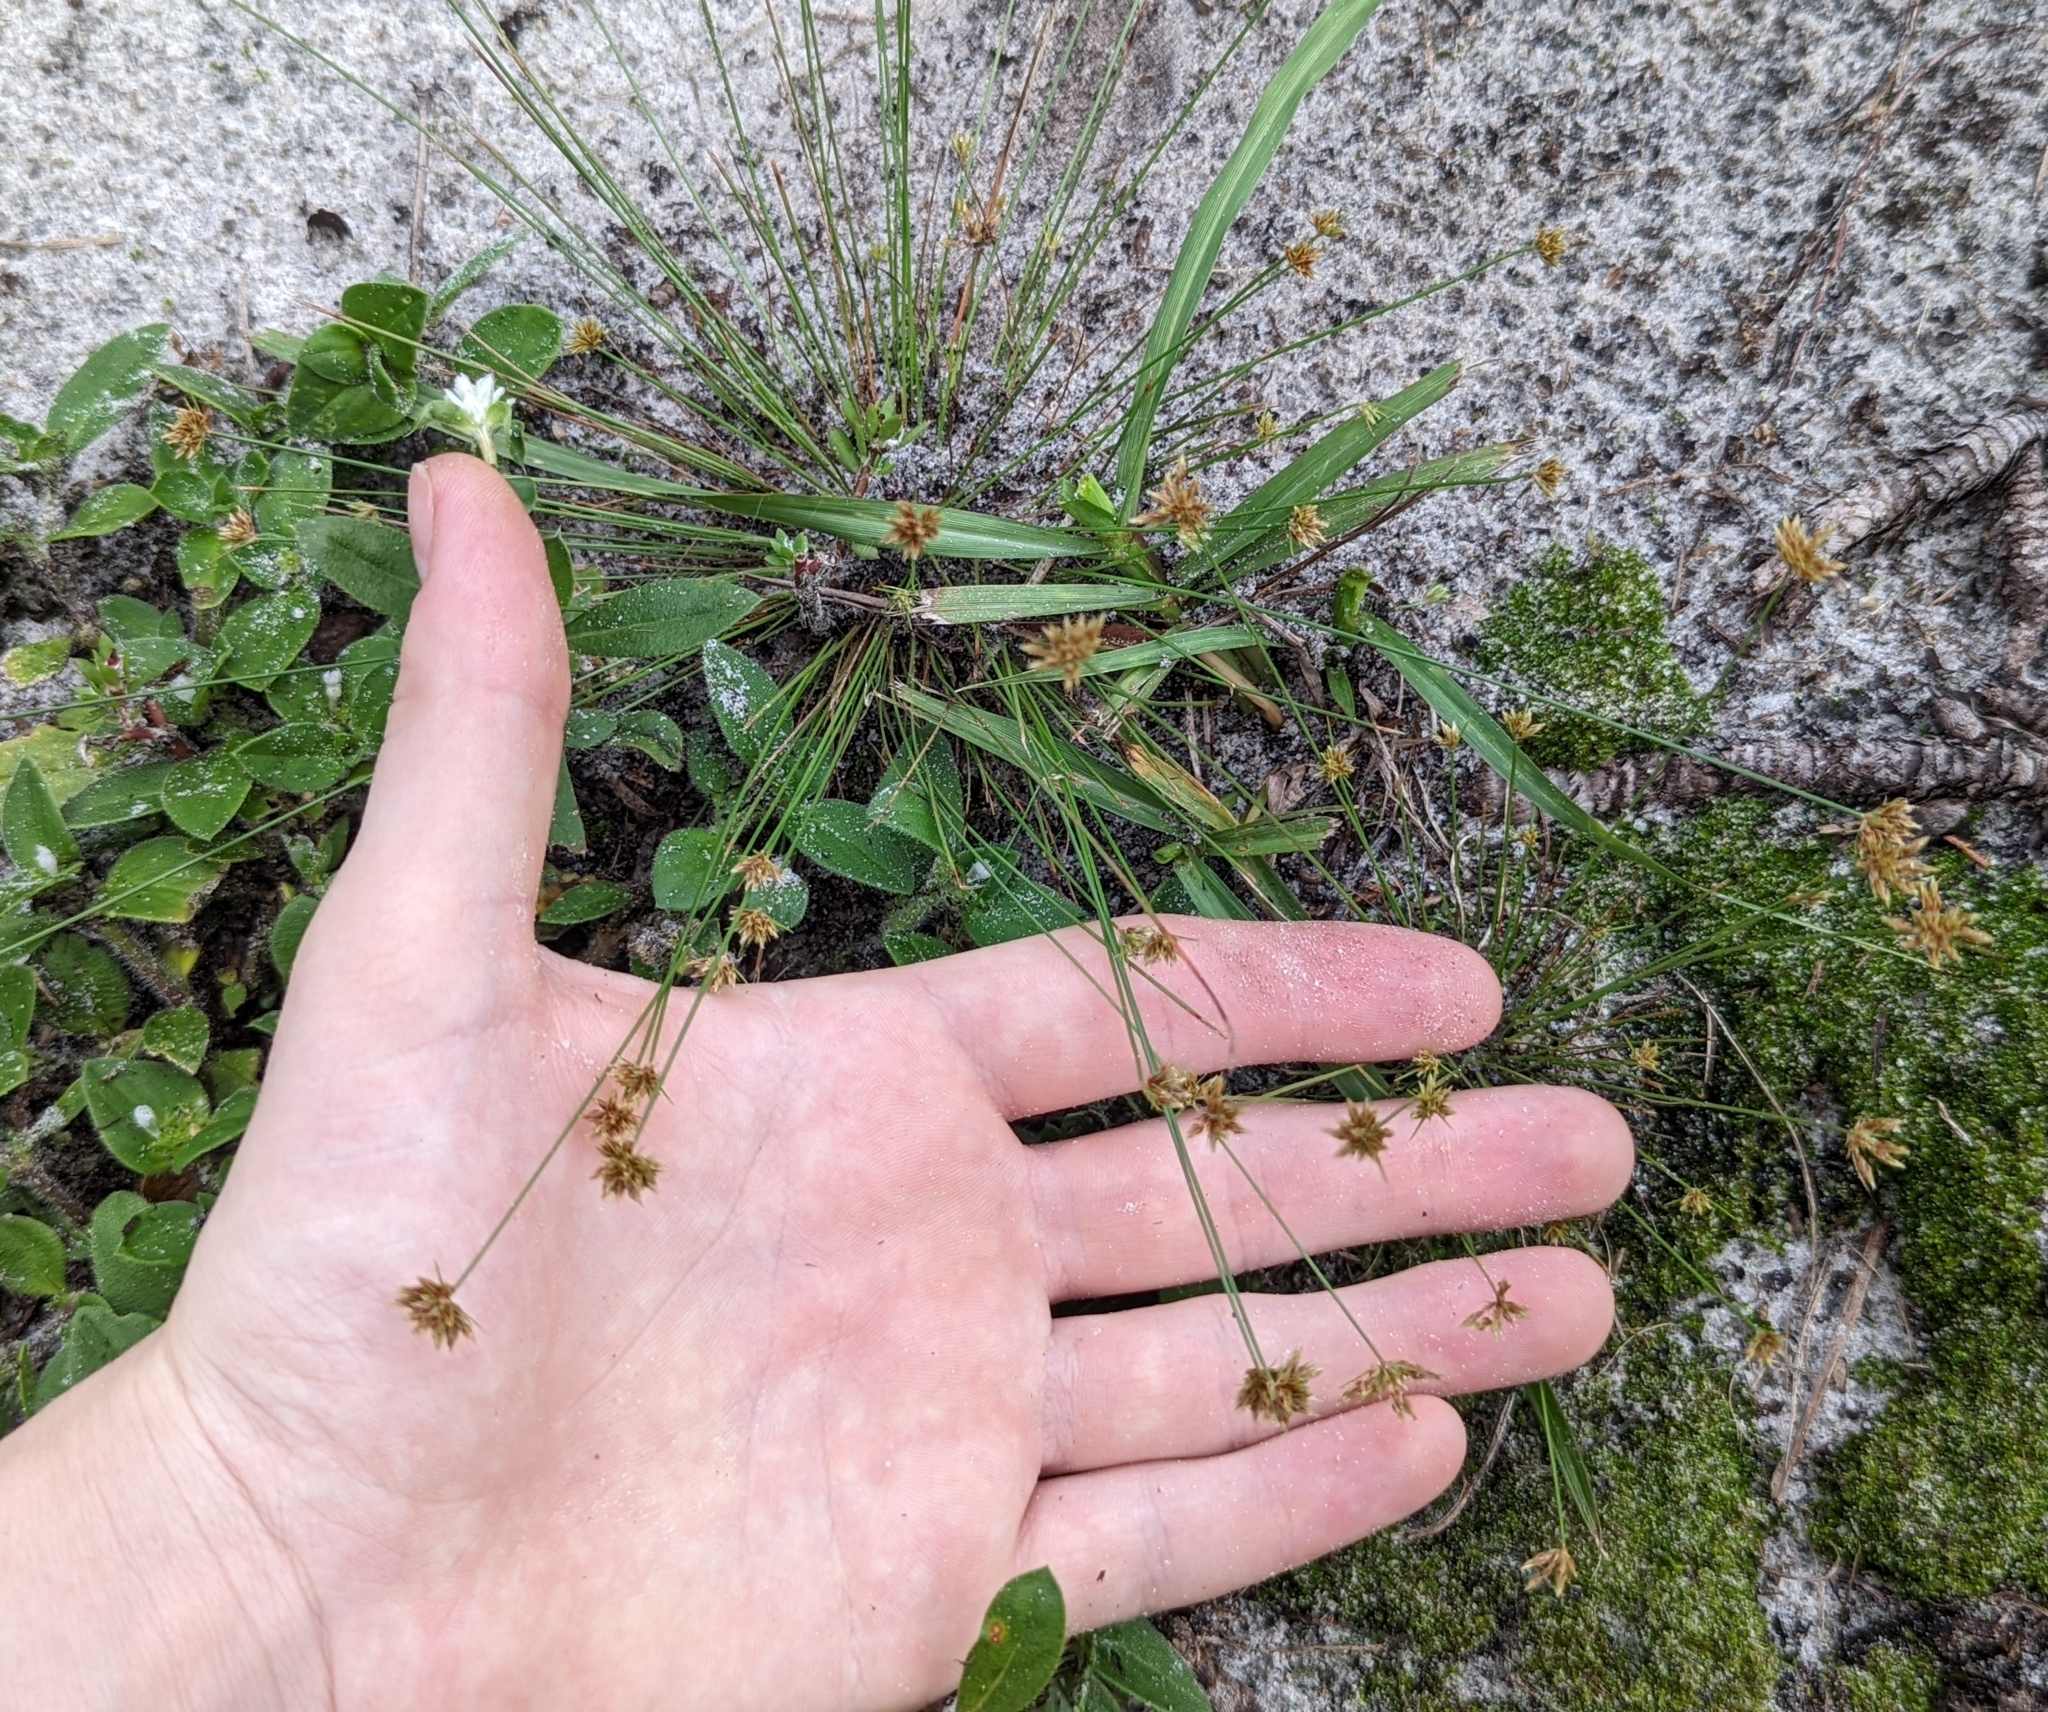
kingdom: Plantae
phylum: Tracheophyta
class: Liliopsida
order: Poales
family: Cyperaceae
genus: Bulbostylis
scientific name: Bulbostylis barbata
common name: Watergrass
